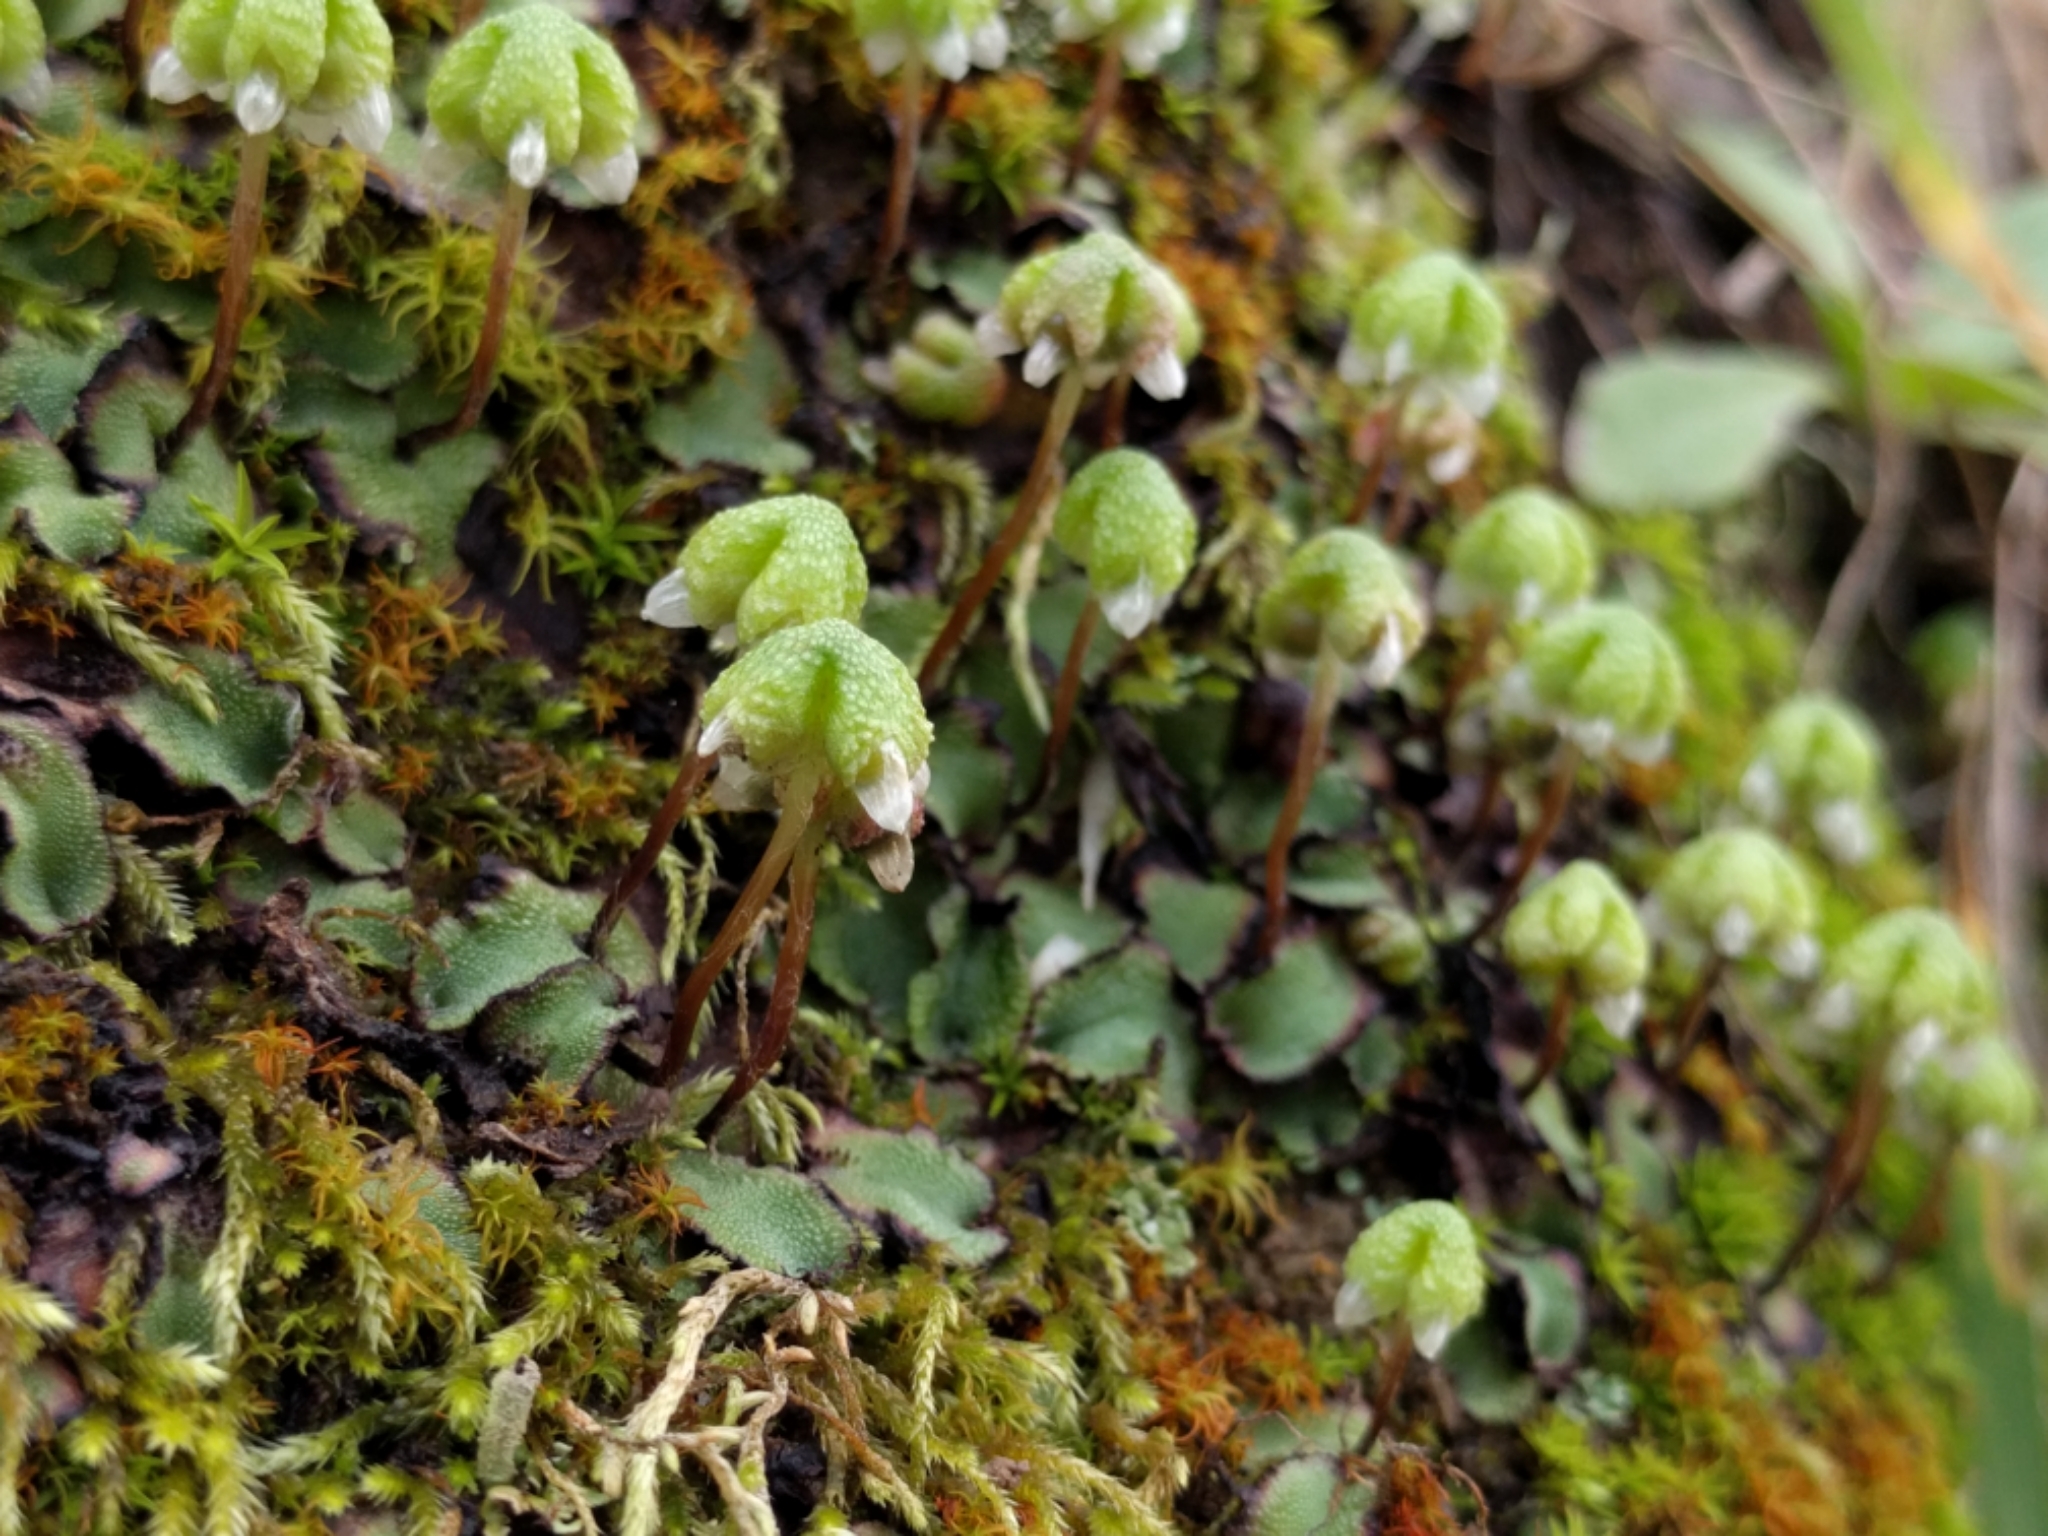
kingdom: Plantae
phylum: Marchantiophyta
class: Marchantiopsida
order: Marchantiales
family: Aytoniaceae
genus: Asterella
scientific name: Asterella californica
